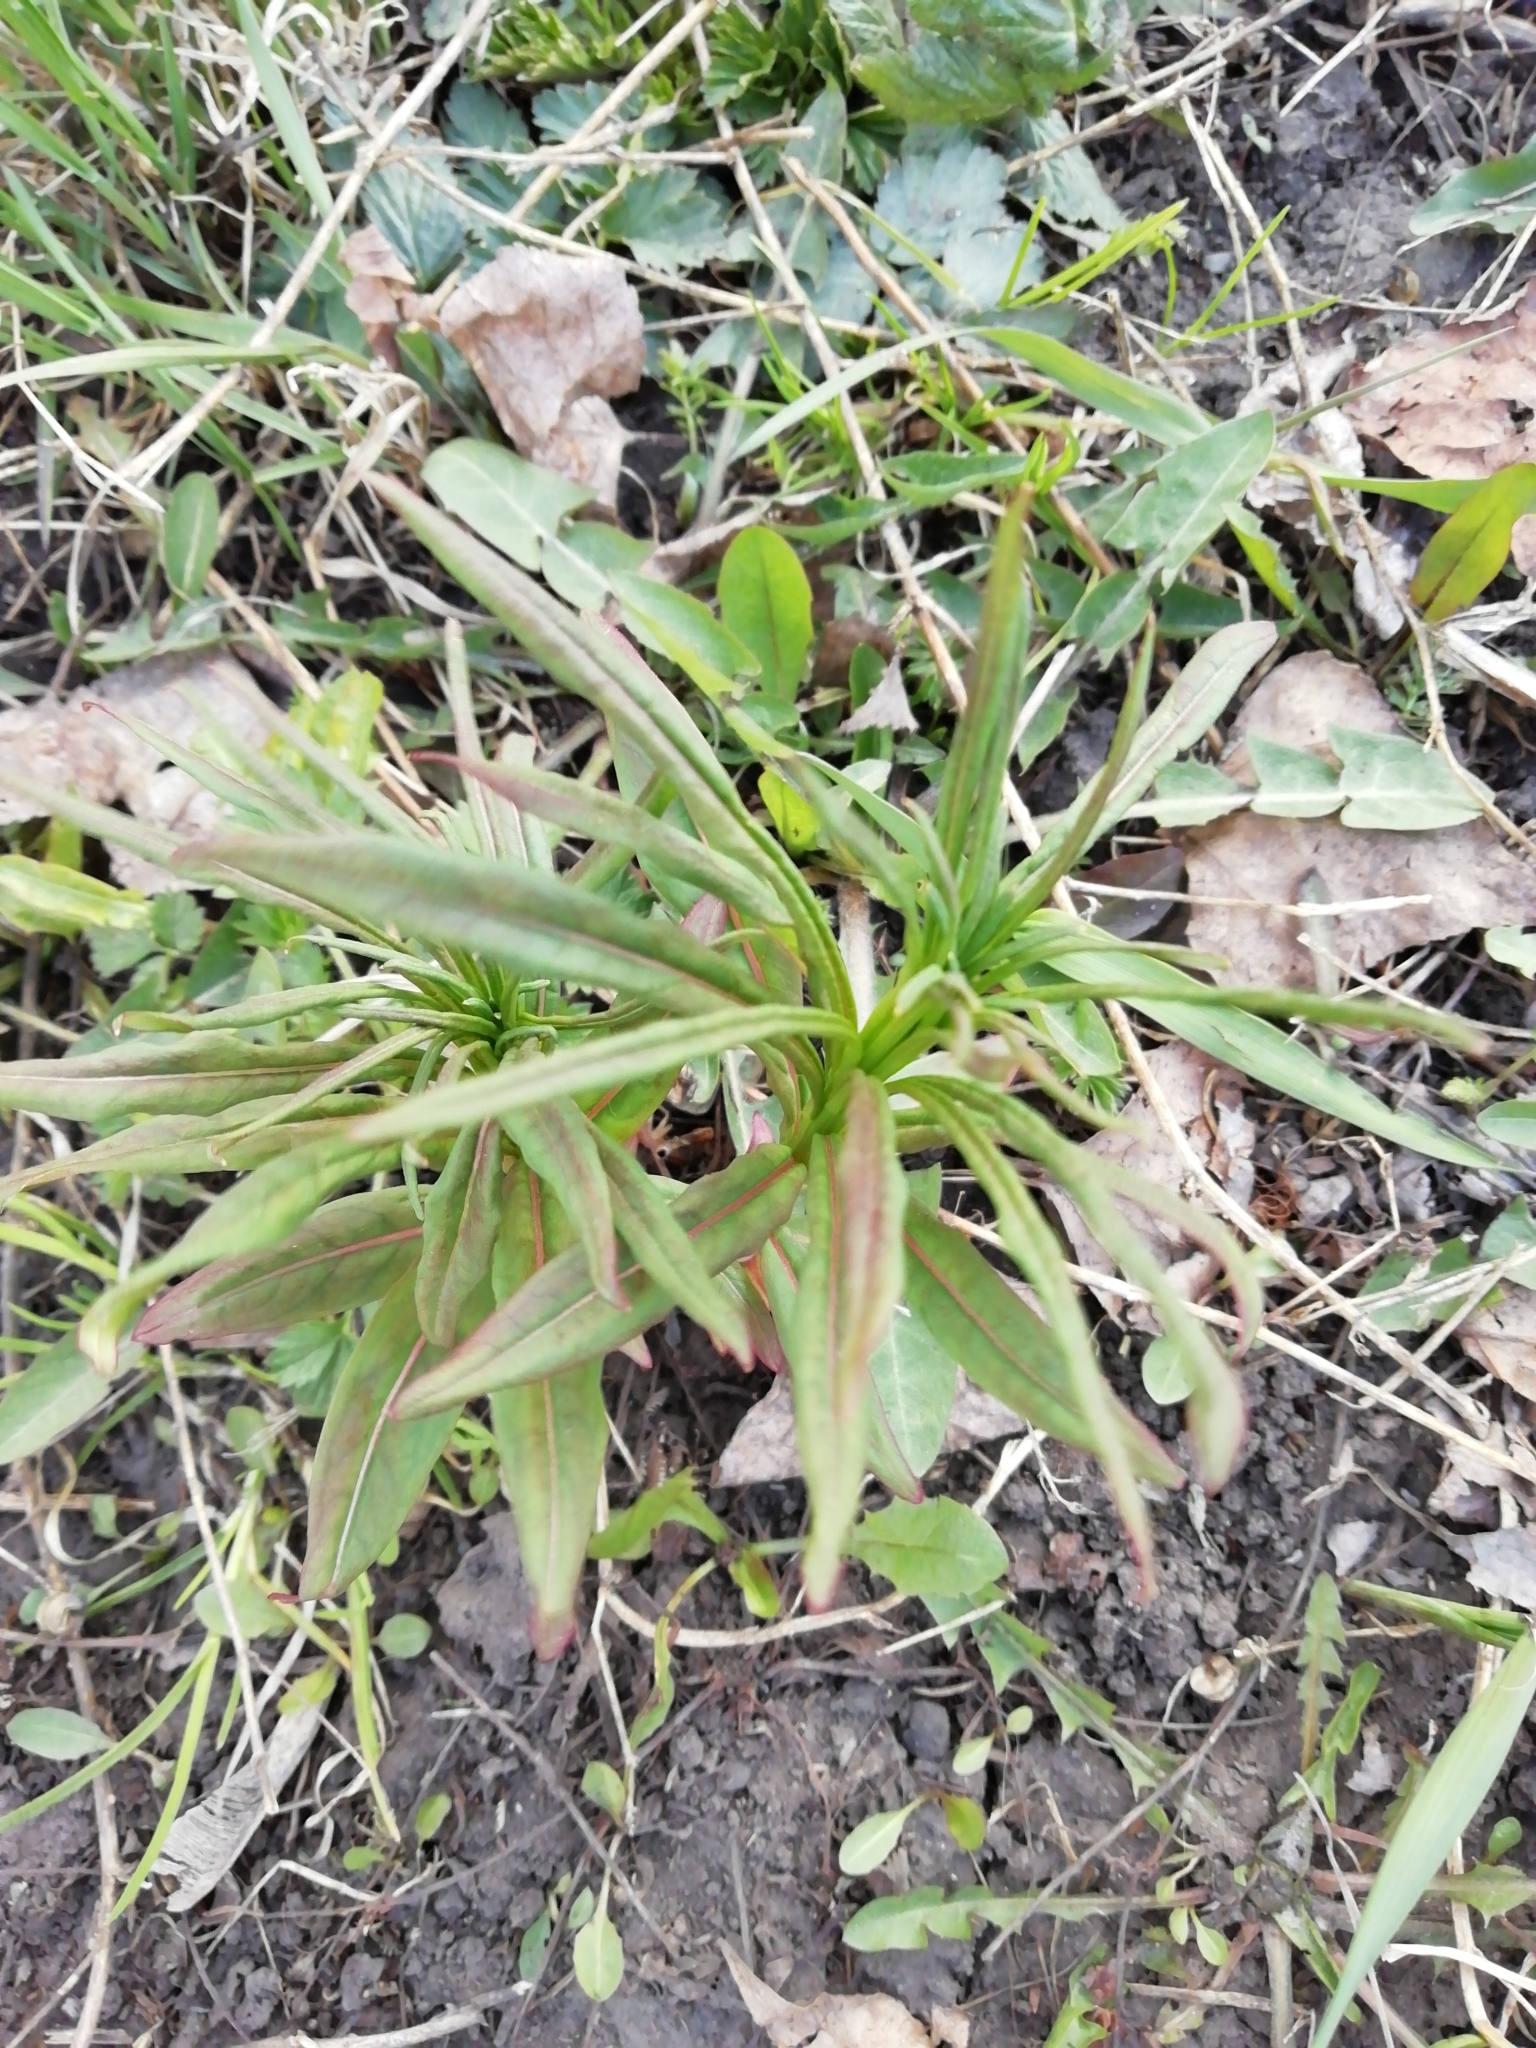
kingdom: Plantae
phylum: Tracheophyta
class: Magnoliopsida
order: Myrtales
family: Onagraceae
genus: Chamaenerion
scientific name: Chamaenerion angustifolium
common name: Fireweed
